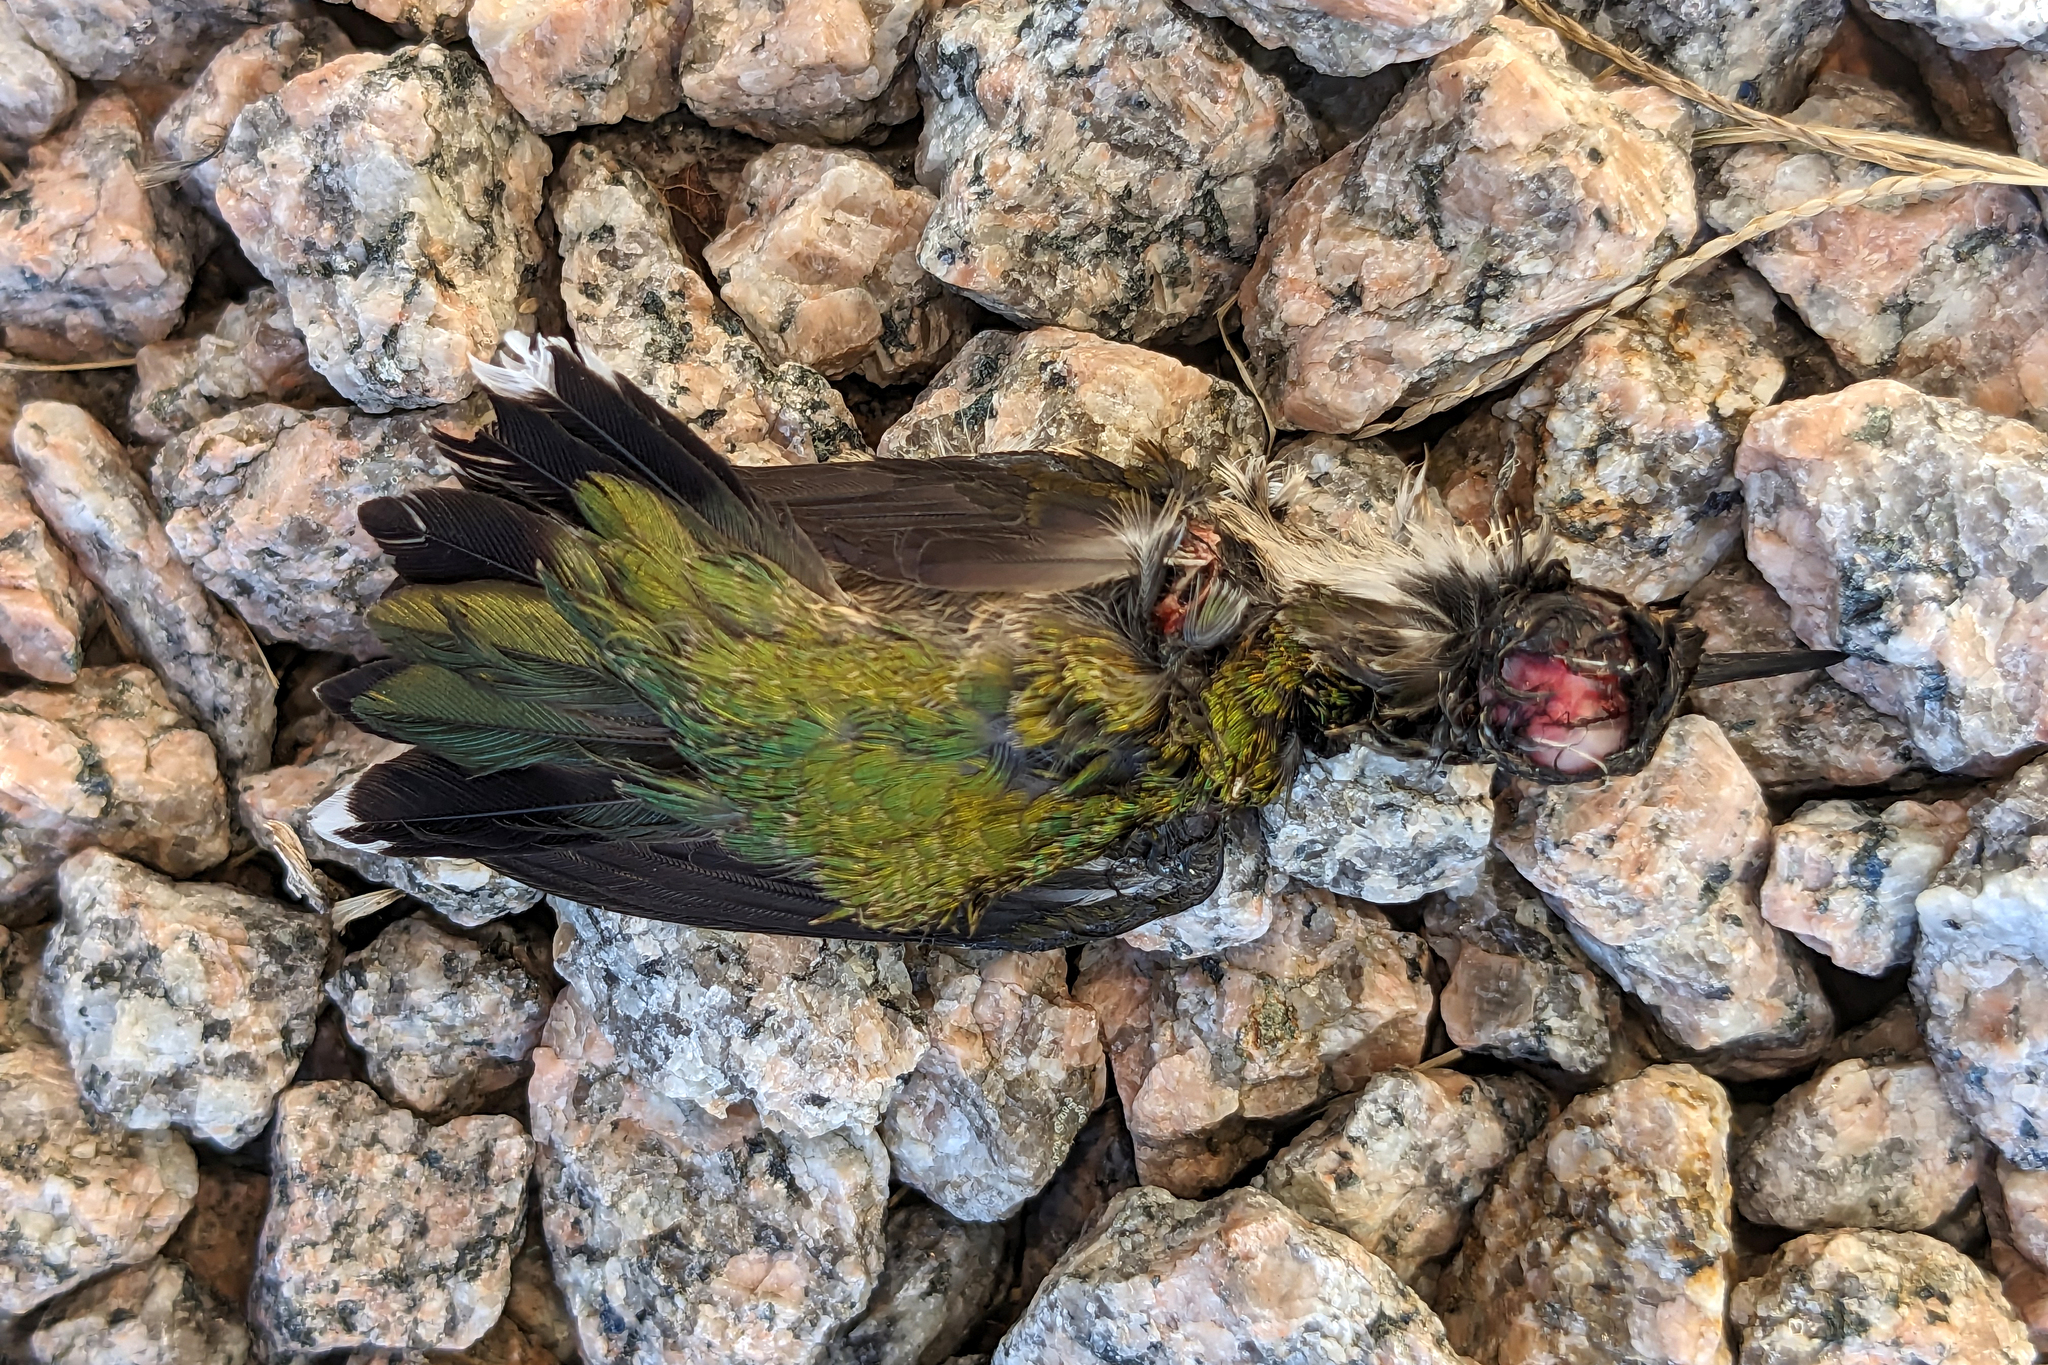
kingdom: Animalia
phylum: Chordata
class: Aves
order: Apodiformes
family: Trochilidae
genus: Archilochus
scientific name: Archilochus colubris
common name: Ruby-throated hummingbird
